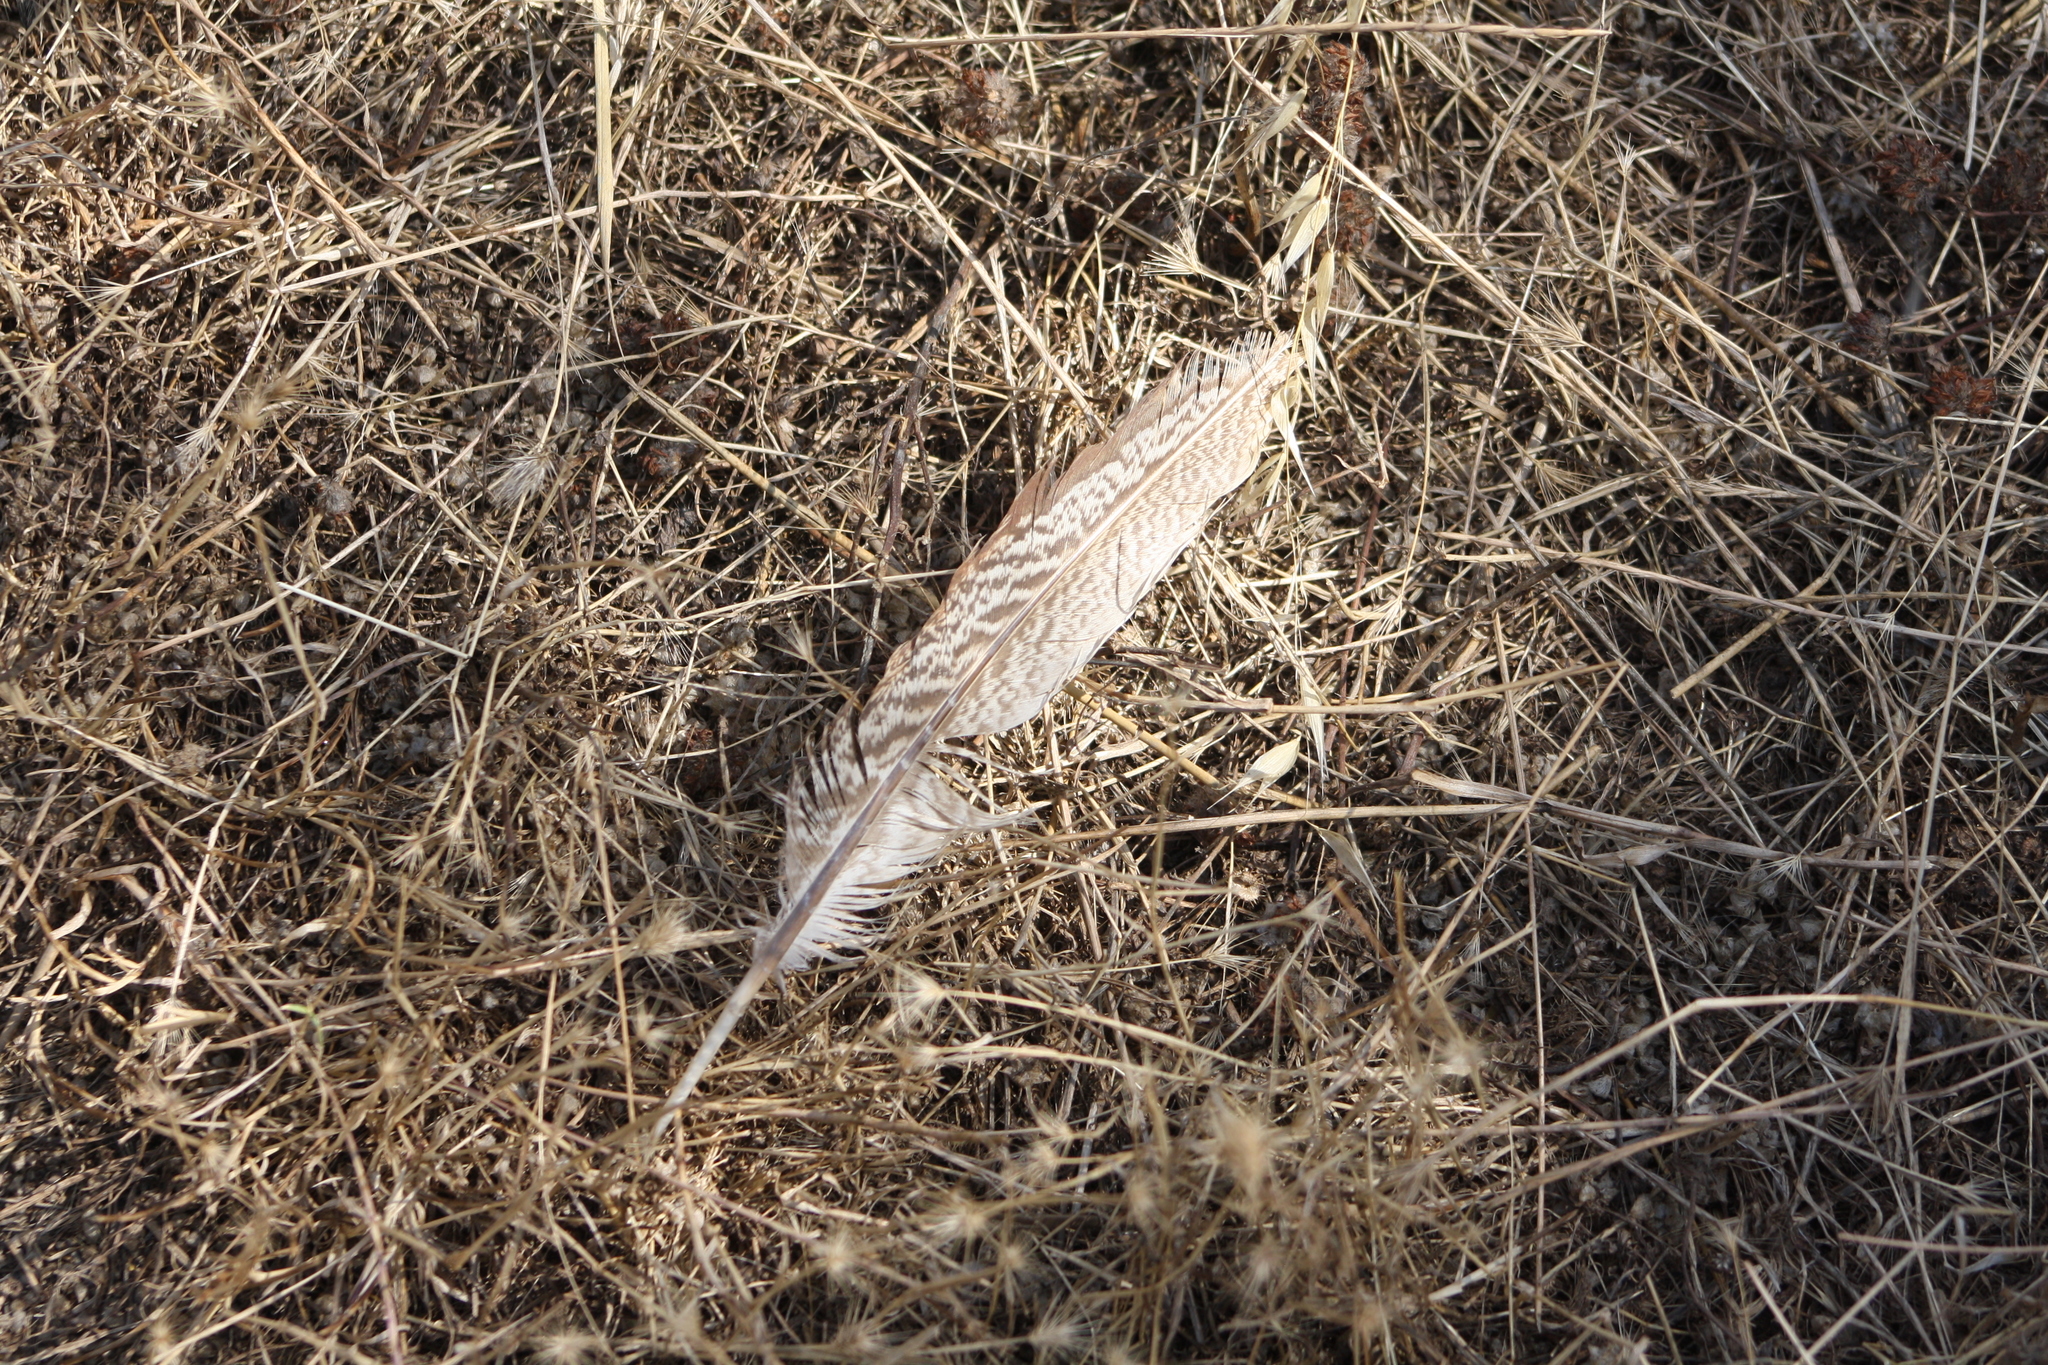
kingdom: Animalia
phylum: Chordata
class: Aves
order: Galliformes
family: Phasianidae
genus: Phasianus
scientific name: Phasianus colchicus
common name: Common pheasant
